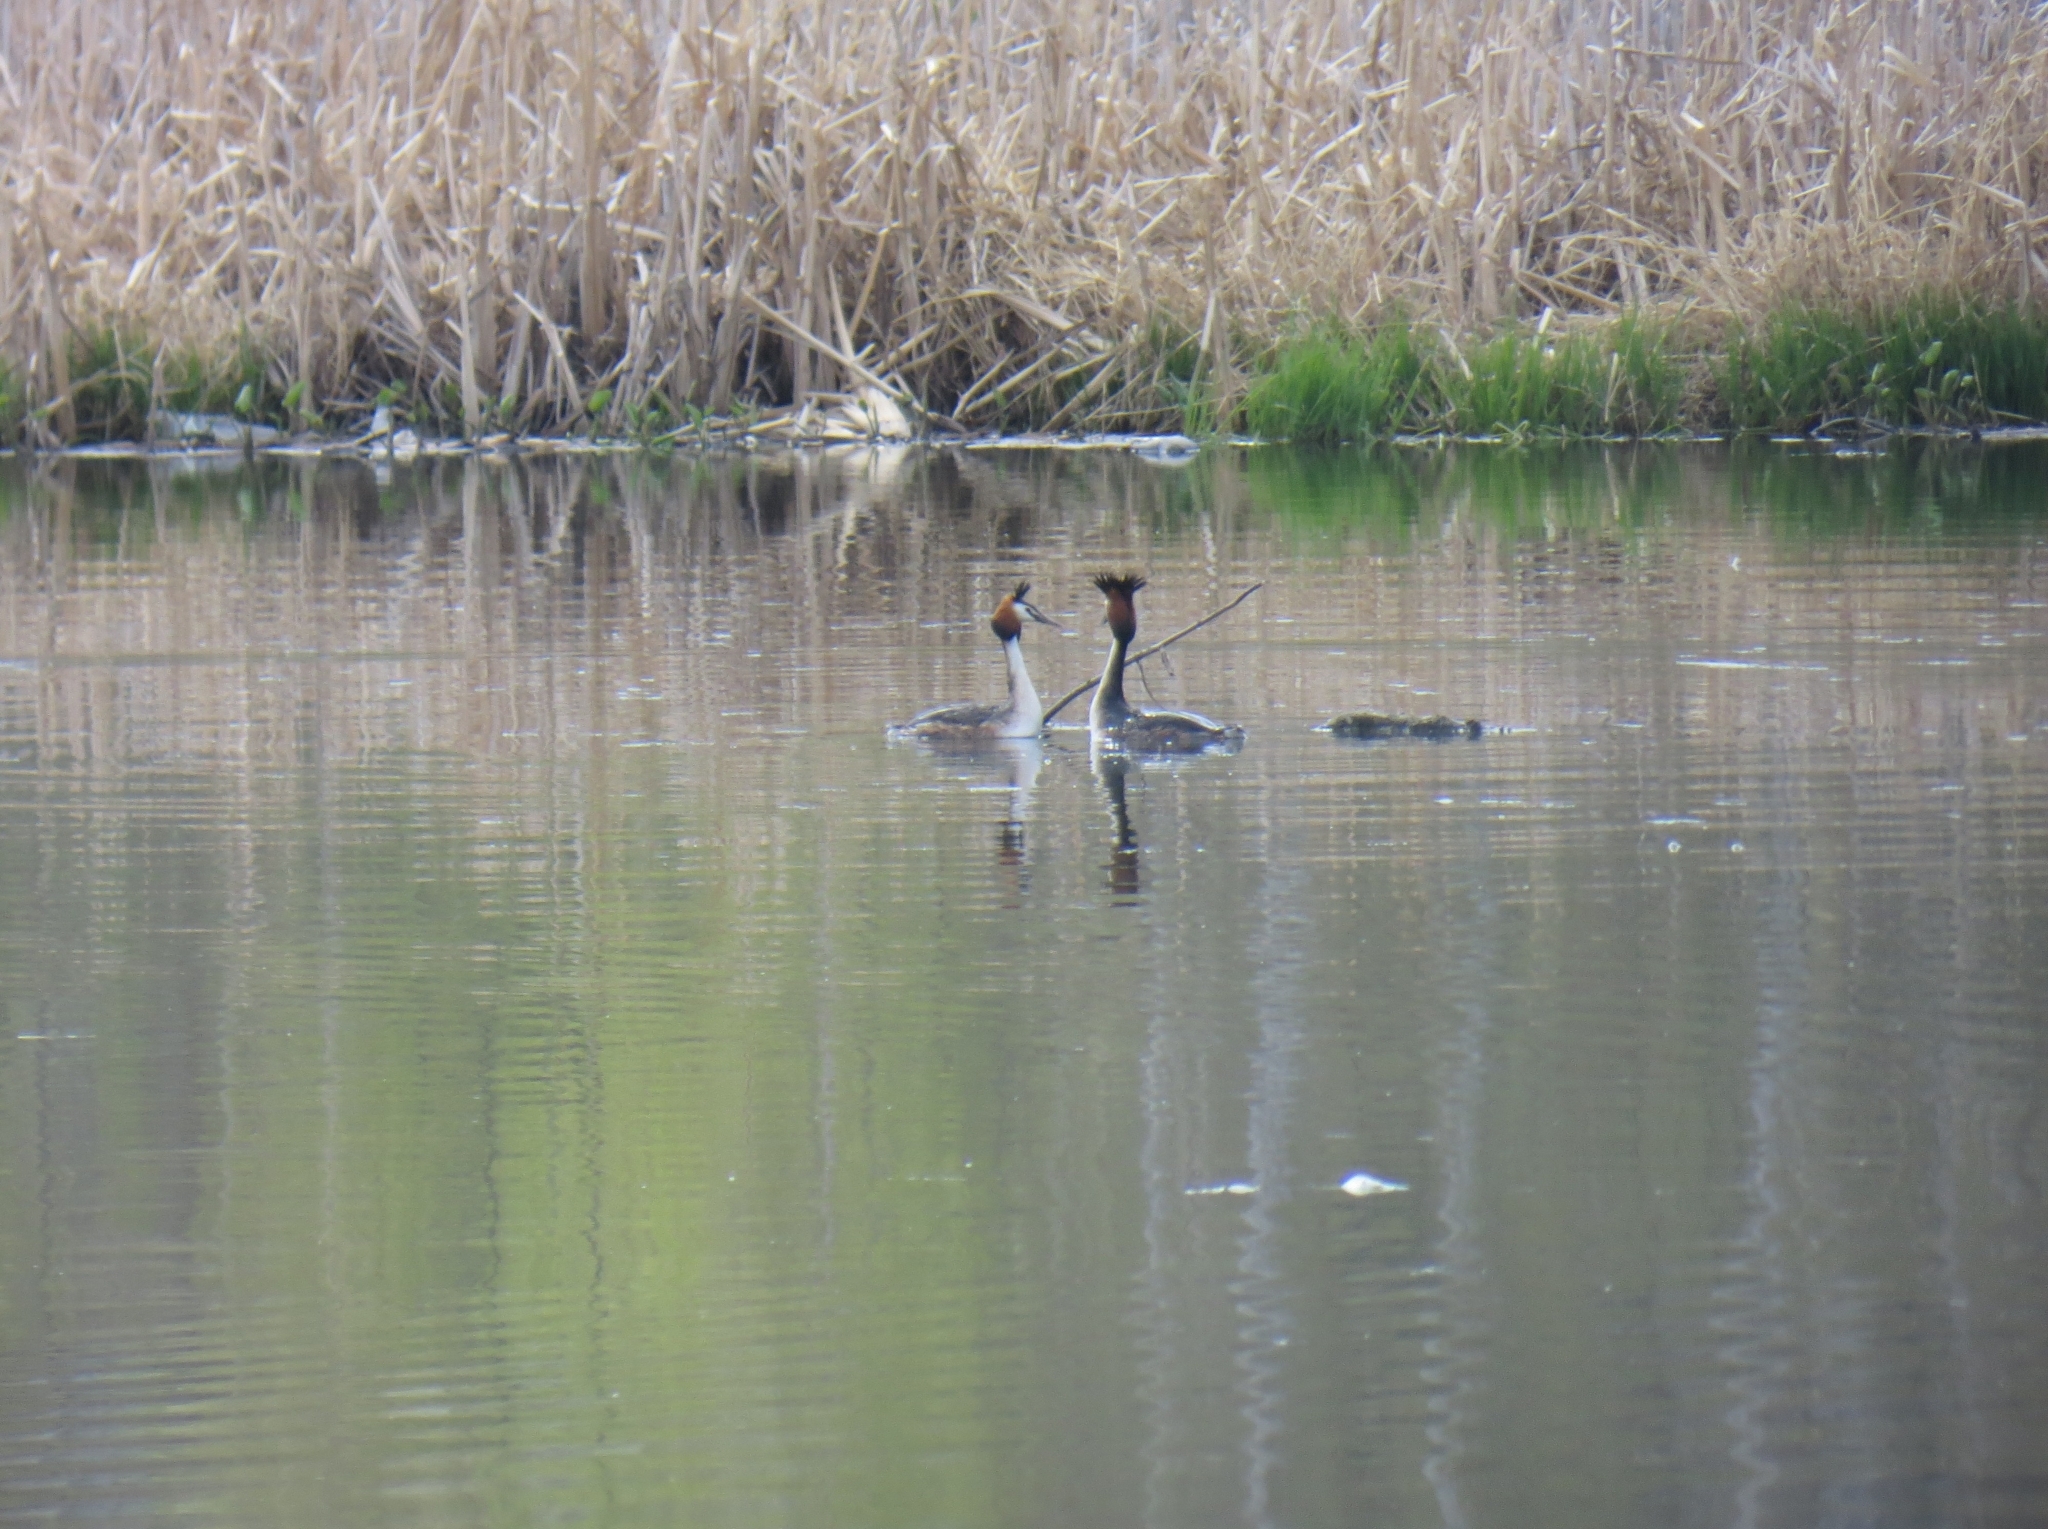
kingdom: Animalia
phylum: Chordata
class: Aves
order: Podicipediformes
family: Podicipedidae
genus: Podiceps
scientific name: Podiceps cristatus
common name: Great crested grebe
